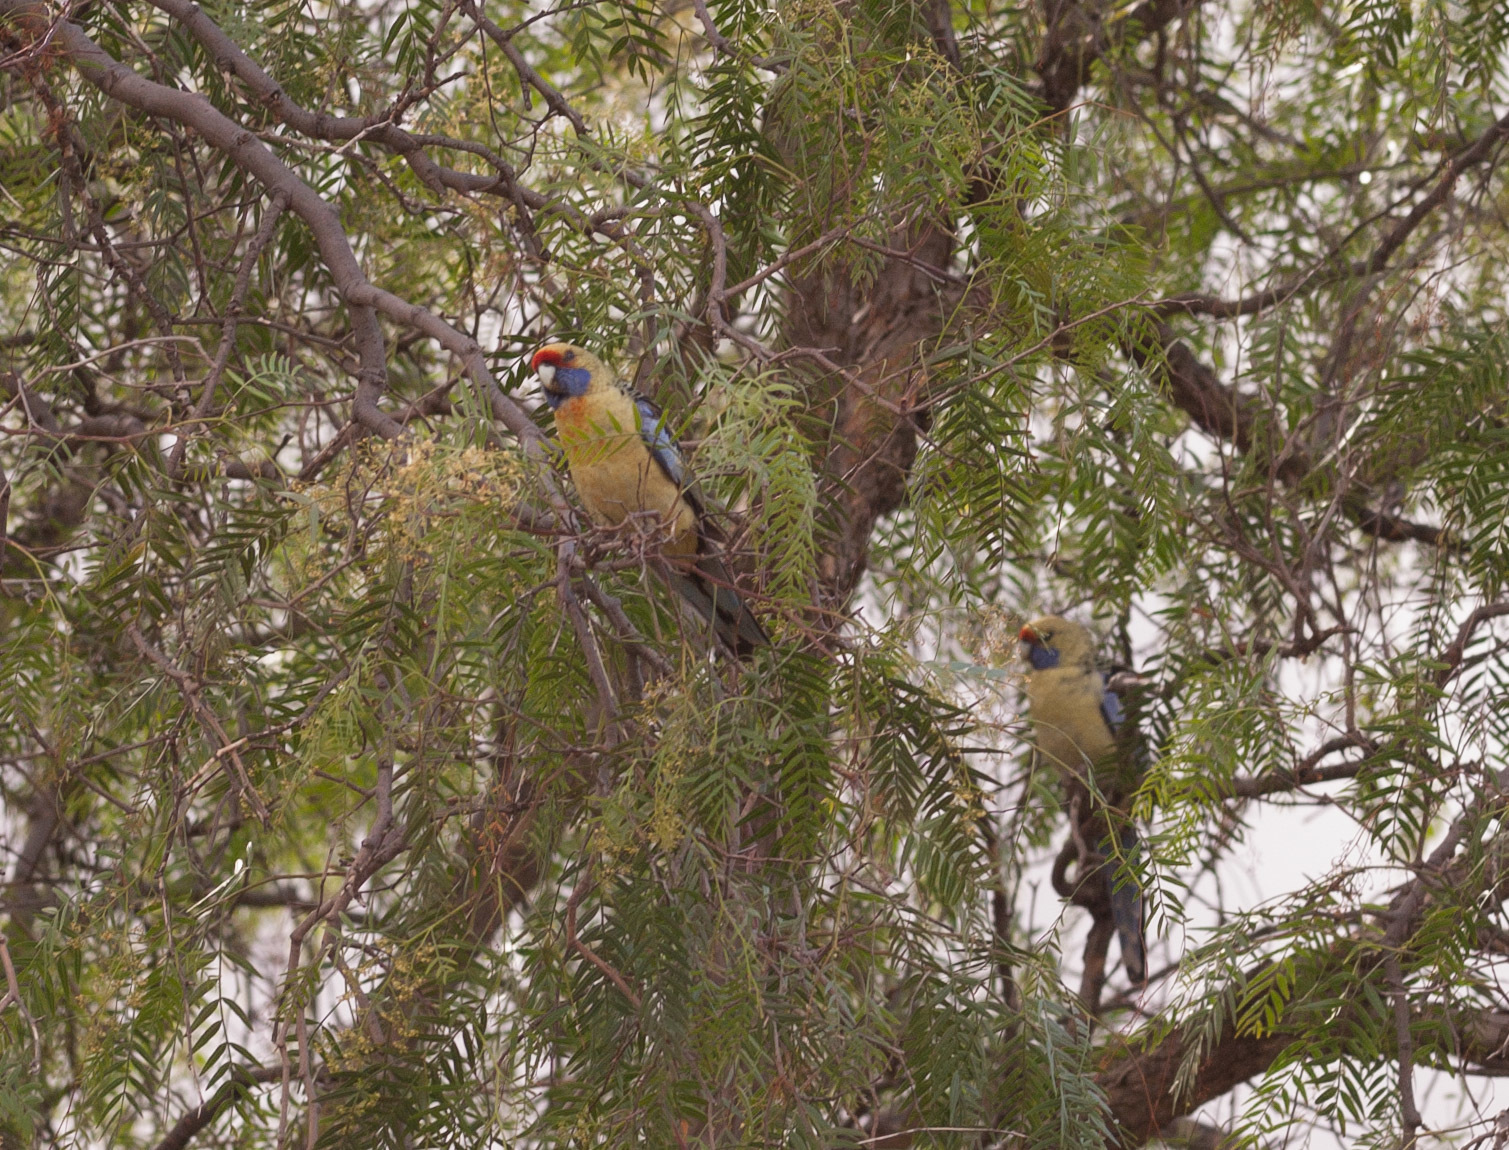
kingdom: Animalia
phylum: Chordata
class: Aves
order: Psittaciformes
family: Psittacidae
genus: Platycercus
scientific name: Platycercus elegans
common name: Crimson rosella
